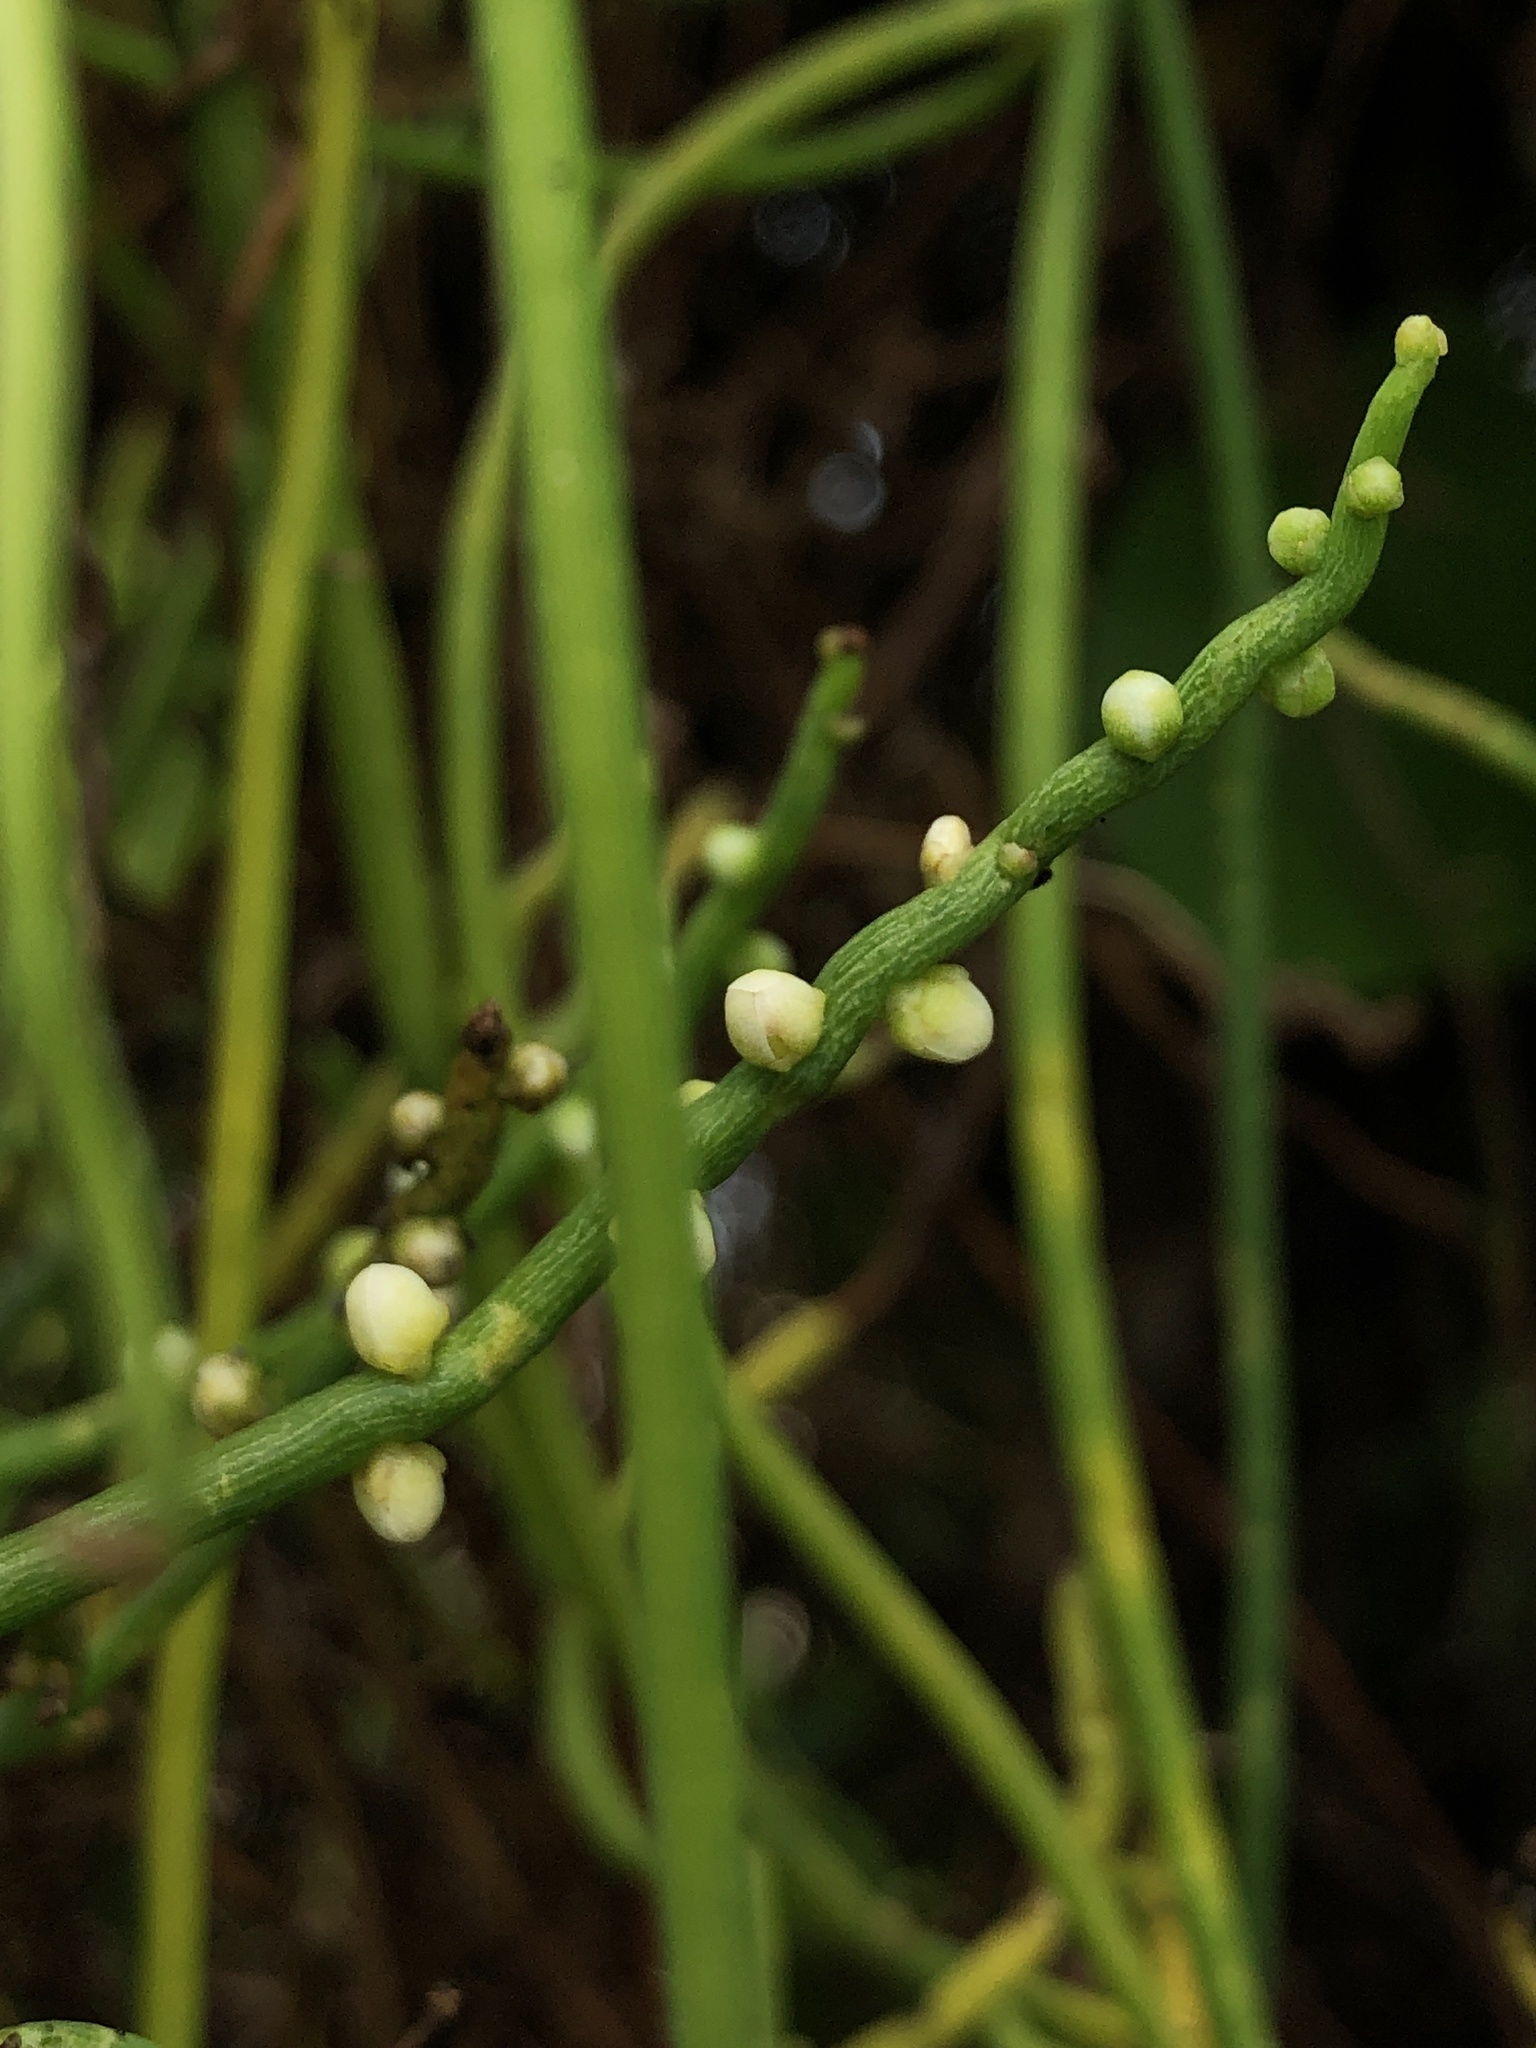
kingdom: Plantae
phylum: Tracheophyta
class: Magnoliopsida
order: Laurales
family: Lauraceae
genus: Cassytha
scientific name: Cassytha filiformis
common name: Dodder-laurel
